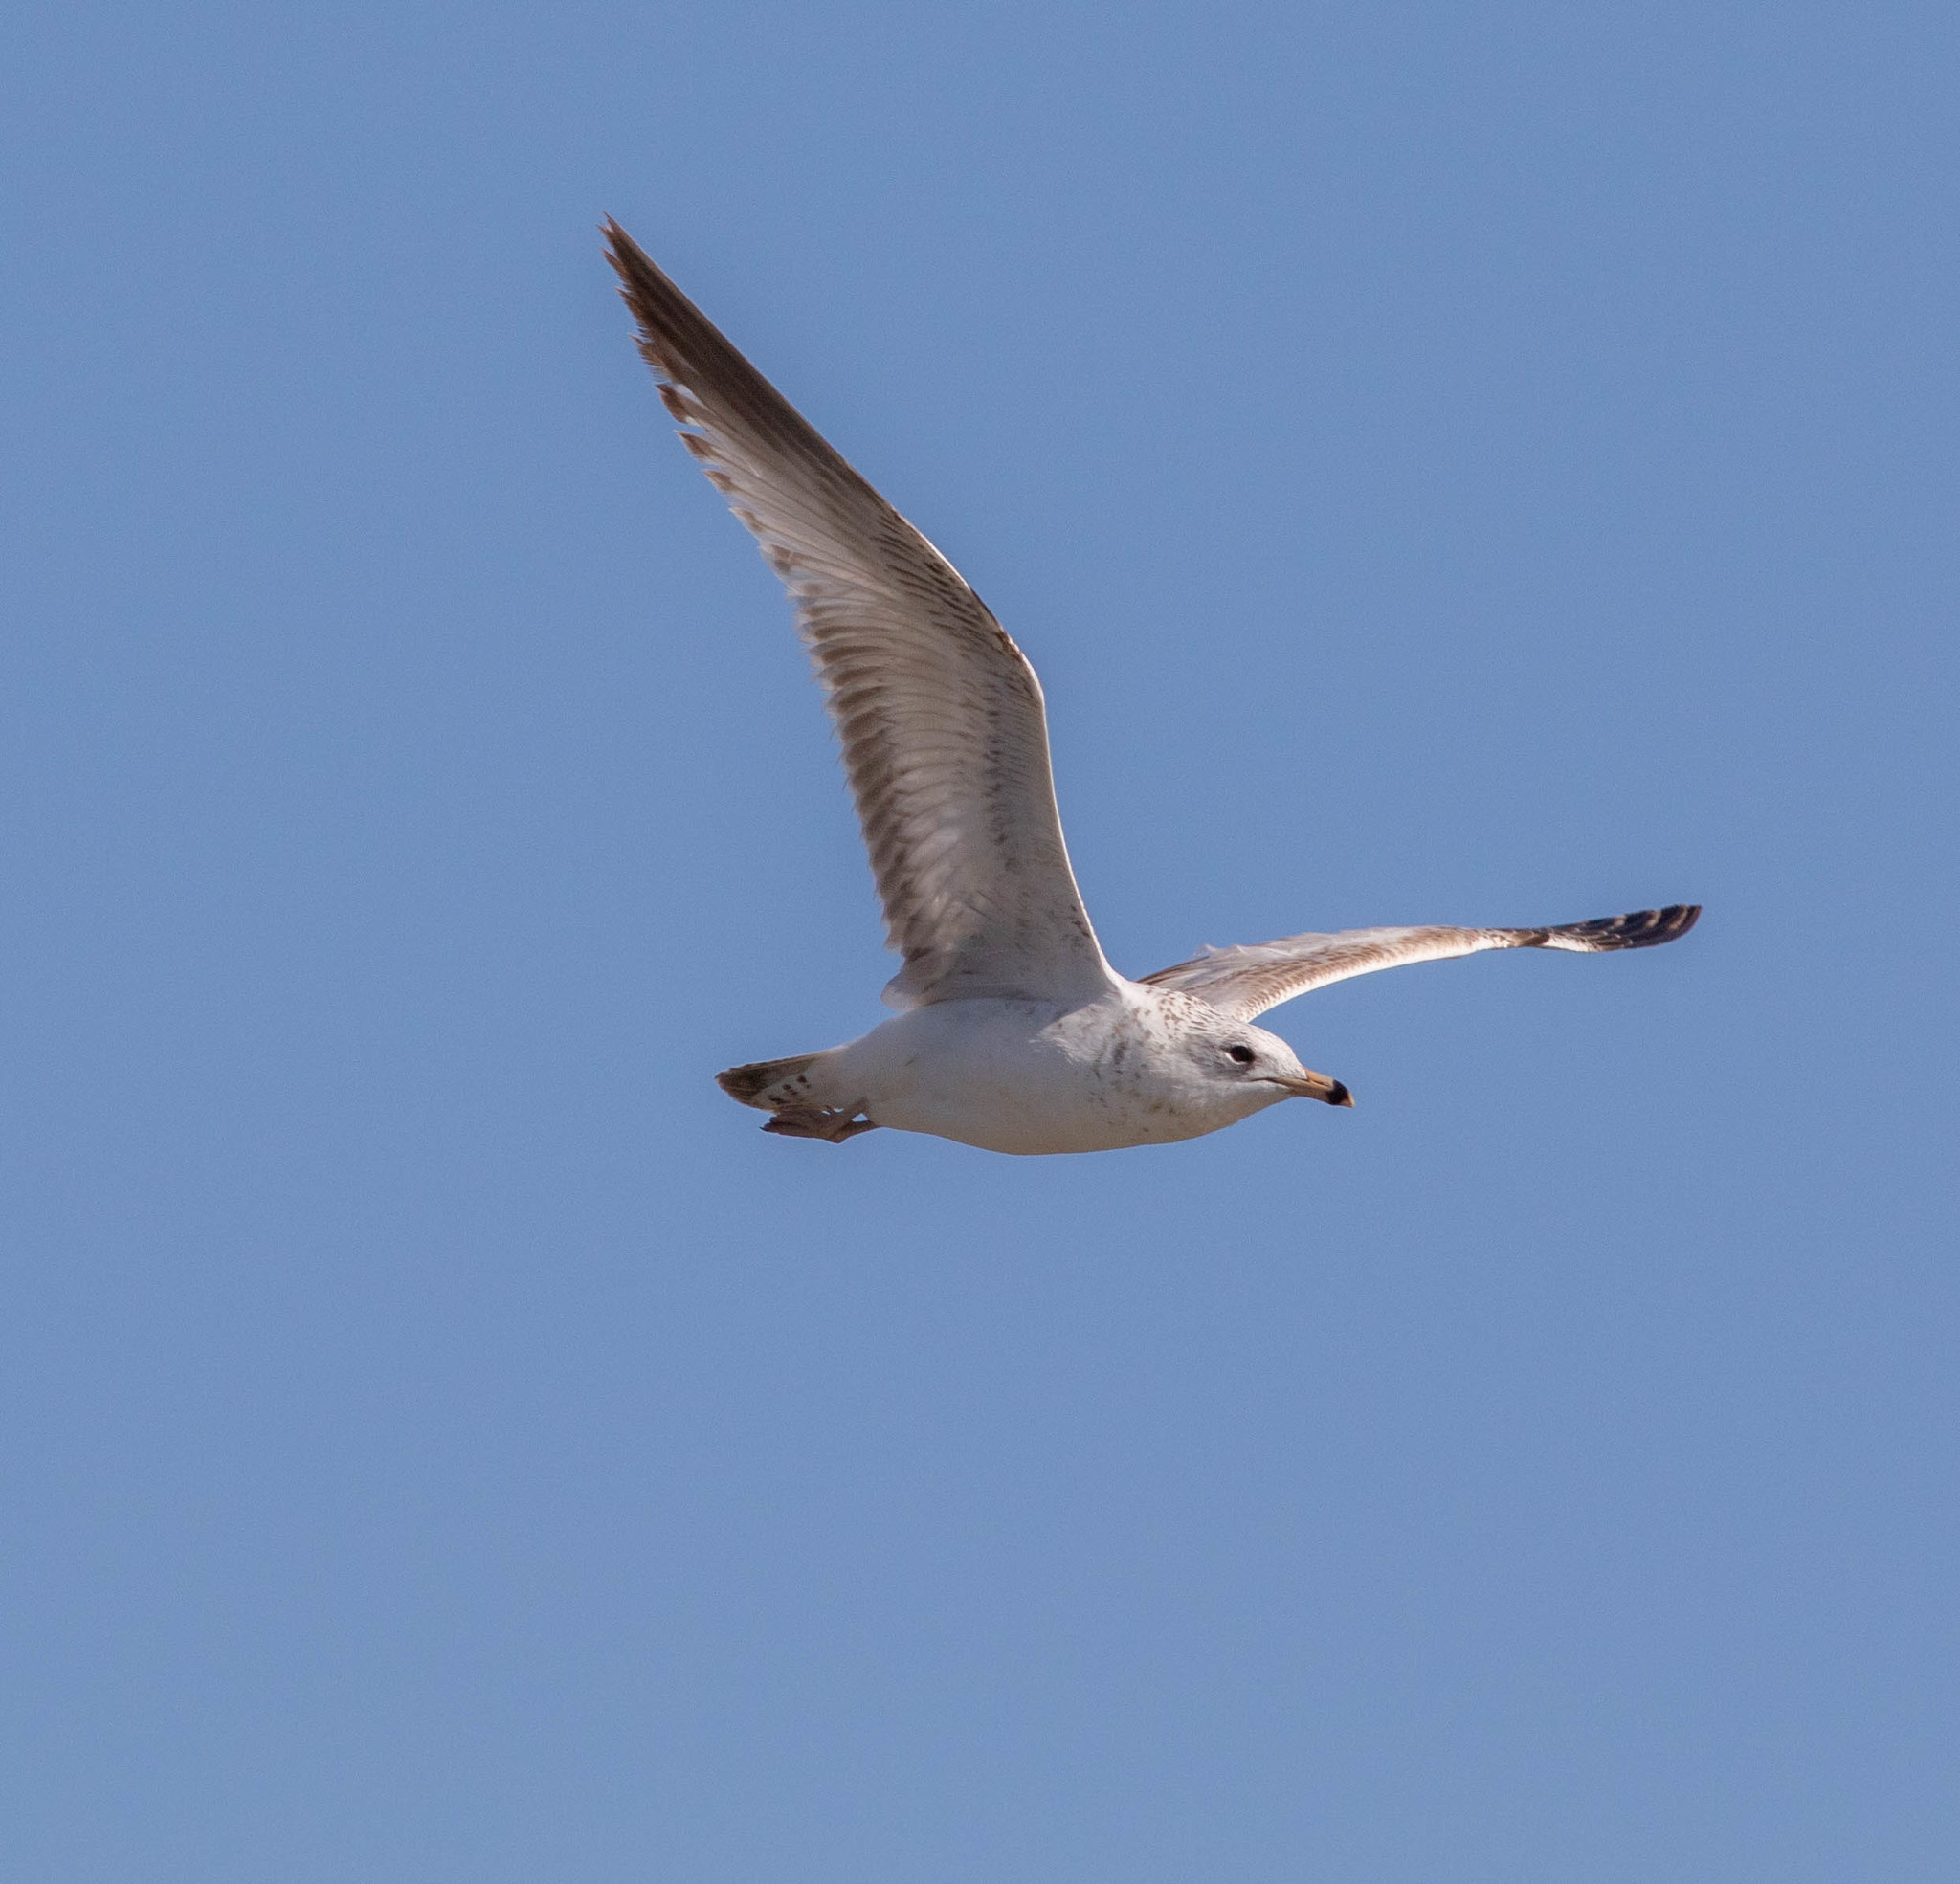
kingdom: Animalia
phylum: Chordata
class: Aves
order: Charadriiformes
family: Laridae
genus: Larus
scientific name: Larus delawarensis
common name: Ring-billed gull
